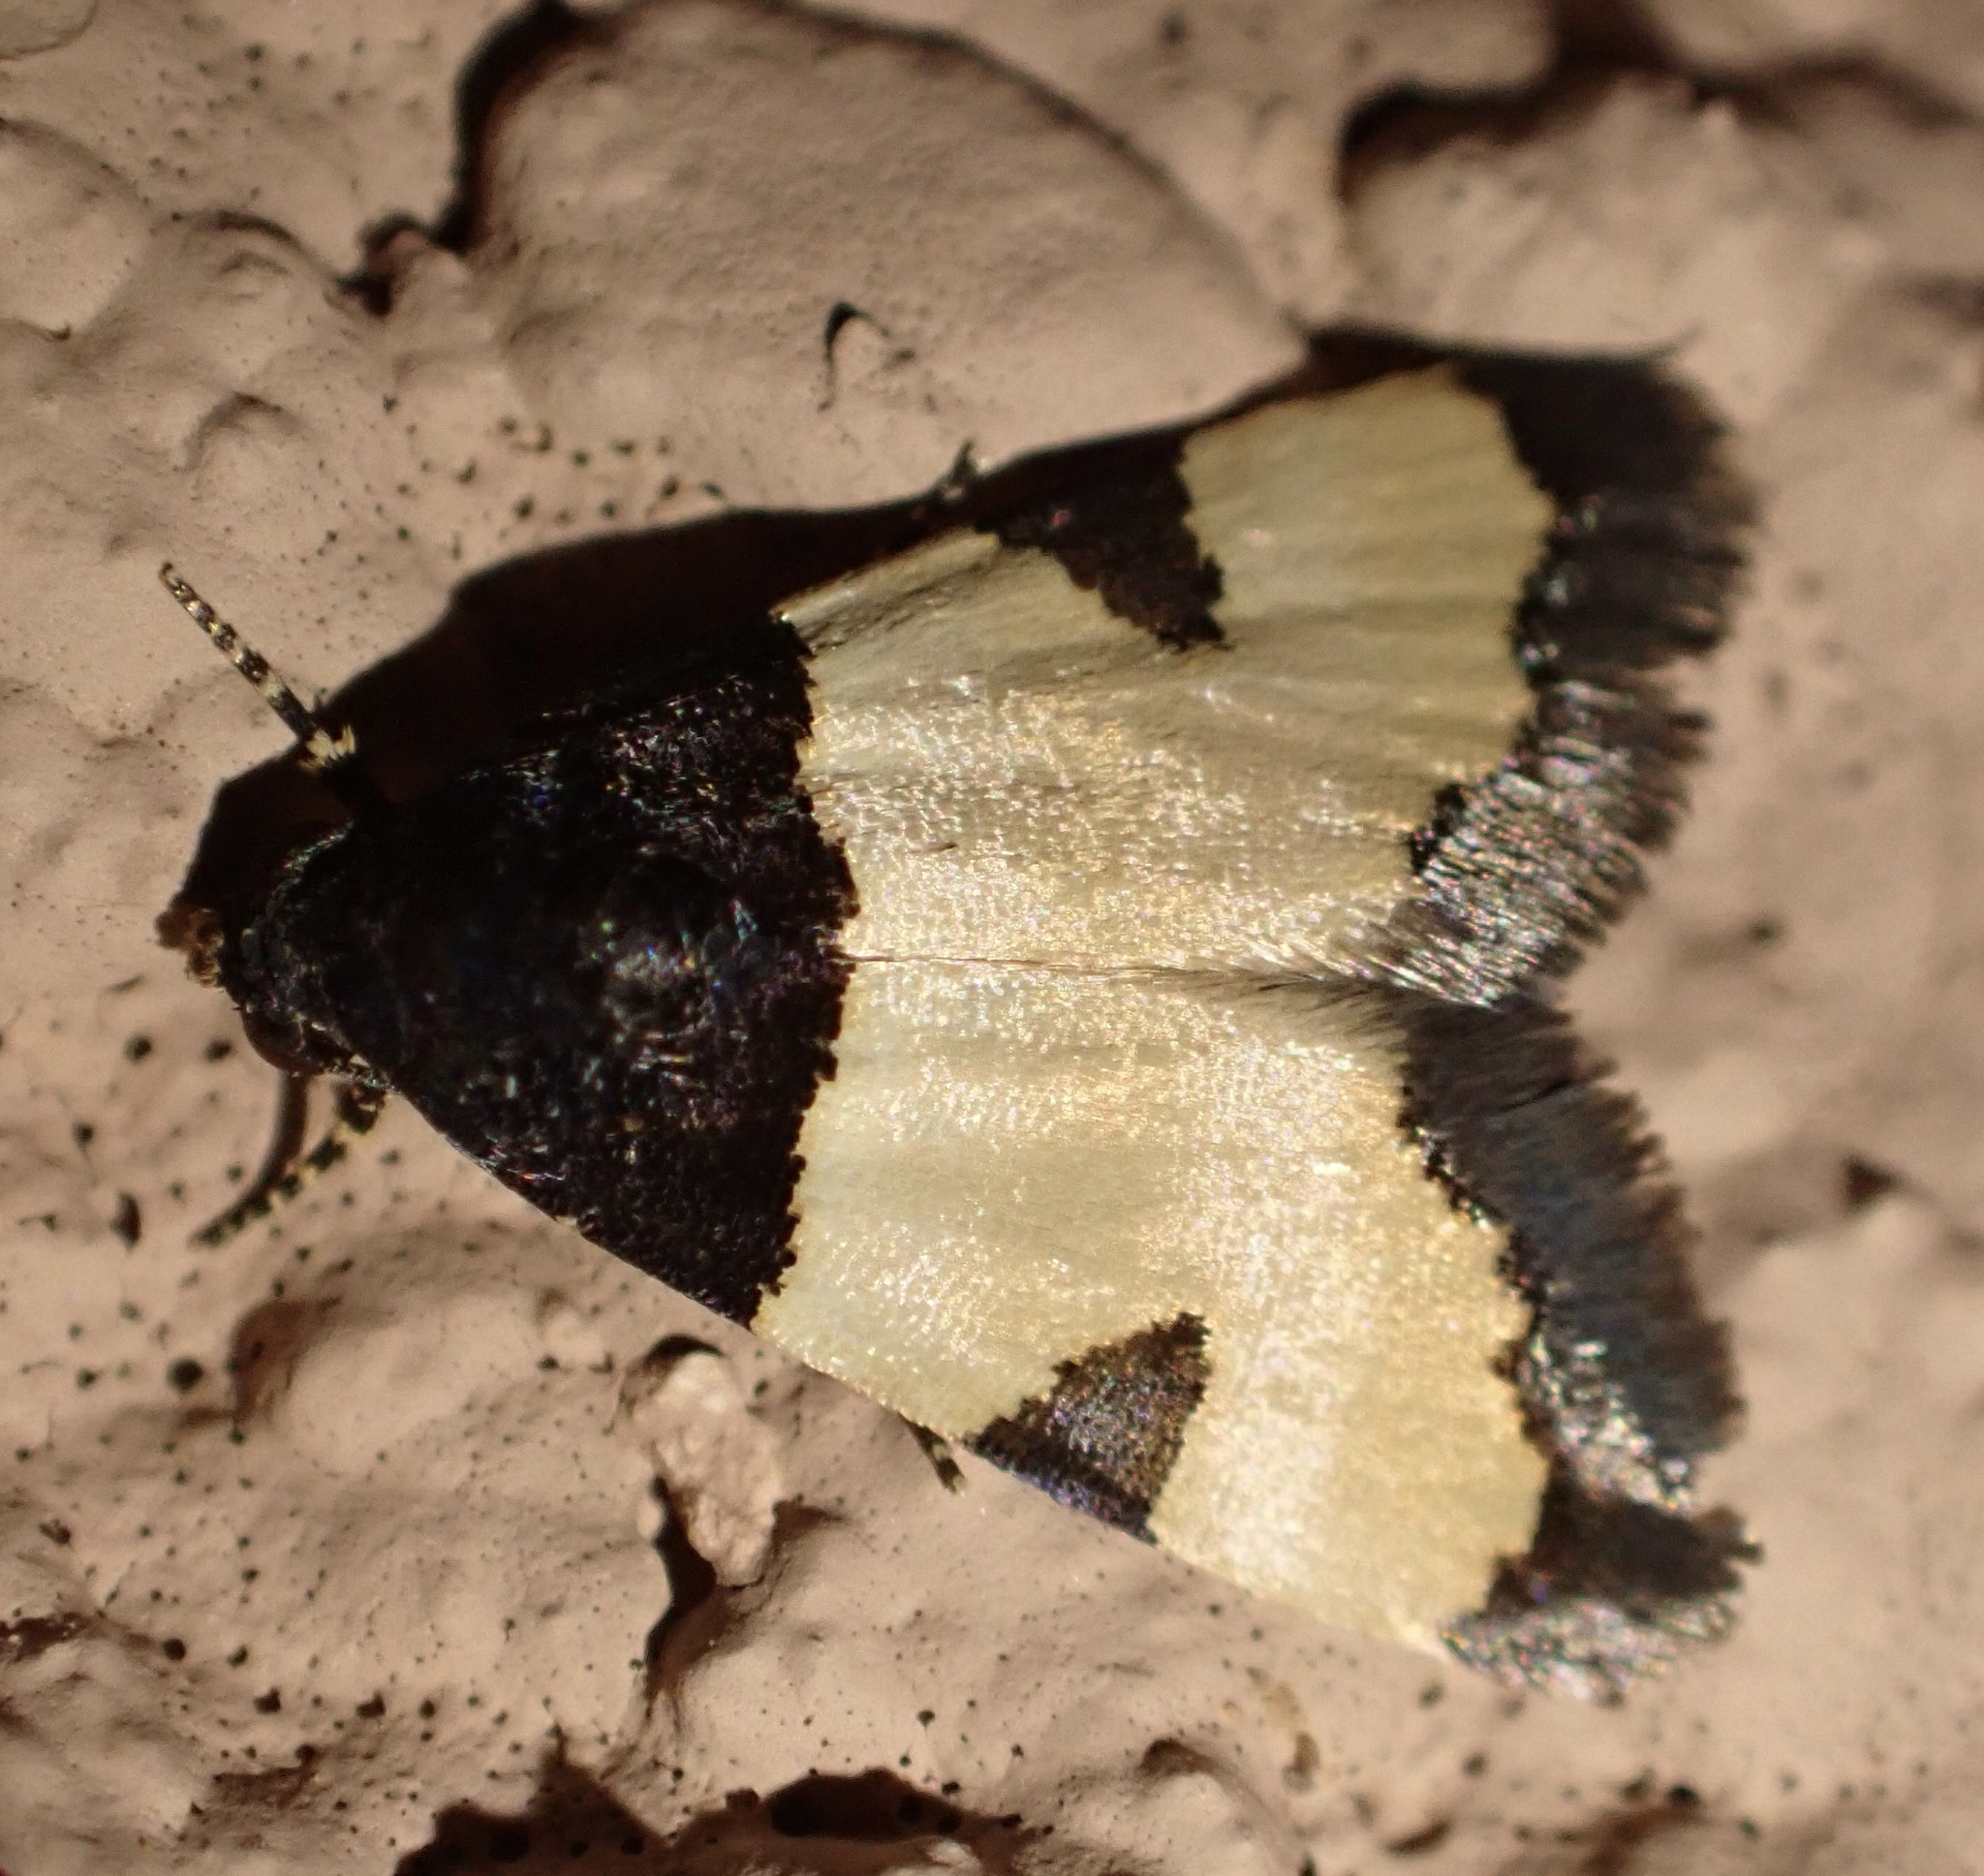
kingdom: Animalia
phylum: Arthropoda
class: Insecta
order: Lepidoptera
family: Noctuidae
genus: Thalerastria
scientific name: Thalerastria lehmanni
